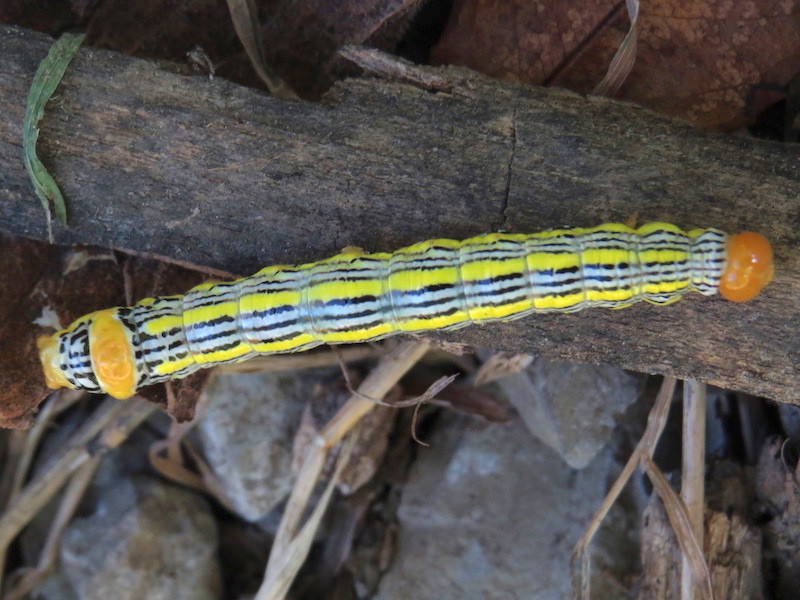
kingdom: Animalia
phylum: Arthropoda
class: Insecta
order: Lepidoptera
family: Notodontidae
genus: Symmerista
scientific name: Symmerista leucitys
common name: Orange-humped mapleworm
